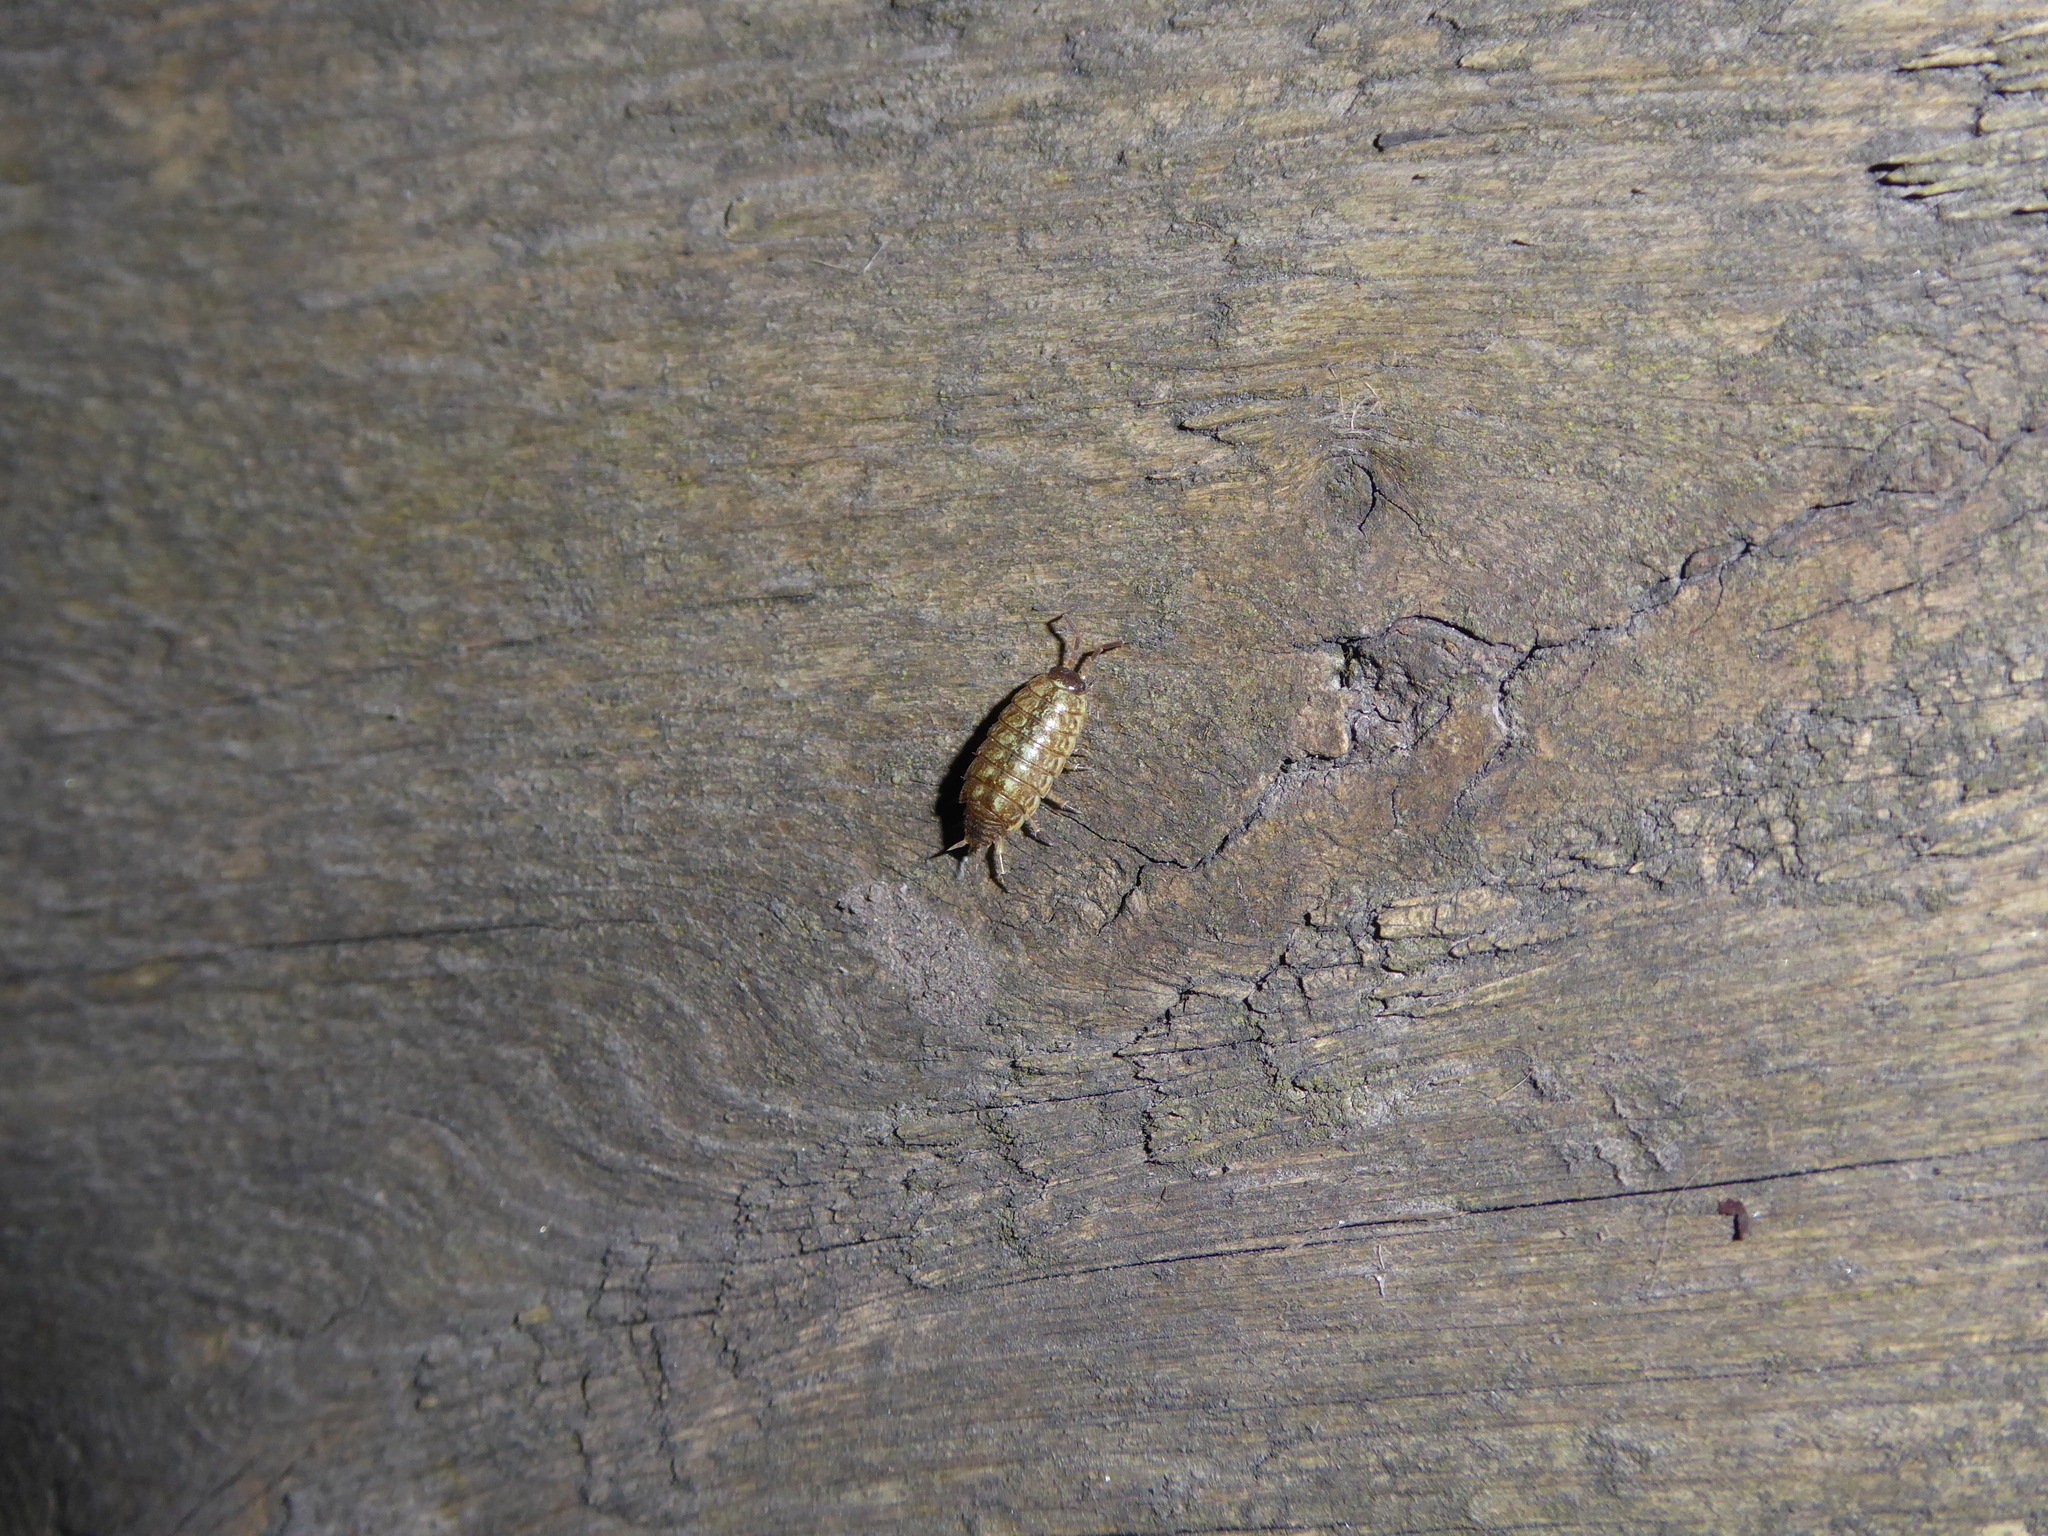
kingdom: Animalia
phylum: Arthropoda
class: Malacostraca
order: Isopoda
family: Philosciidae
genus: Philoscia
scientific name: Philoscia muscorum
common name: Common striped woodlouse
